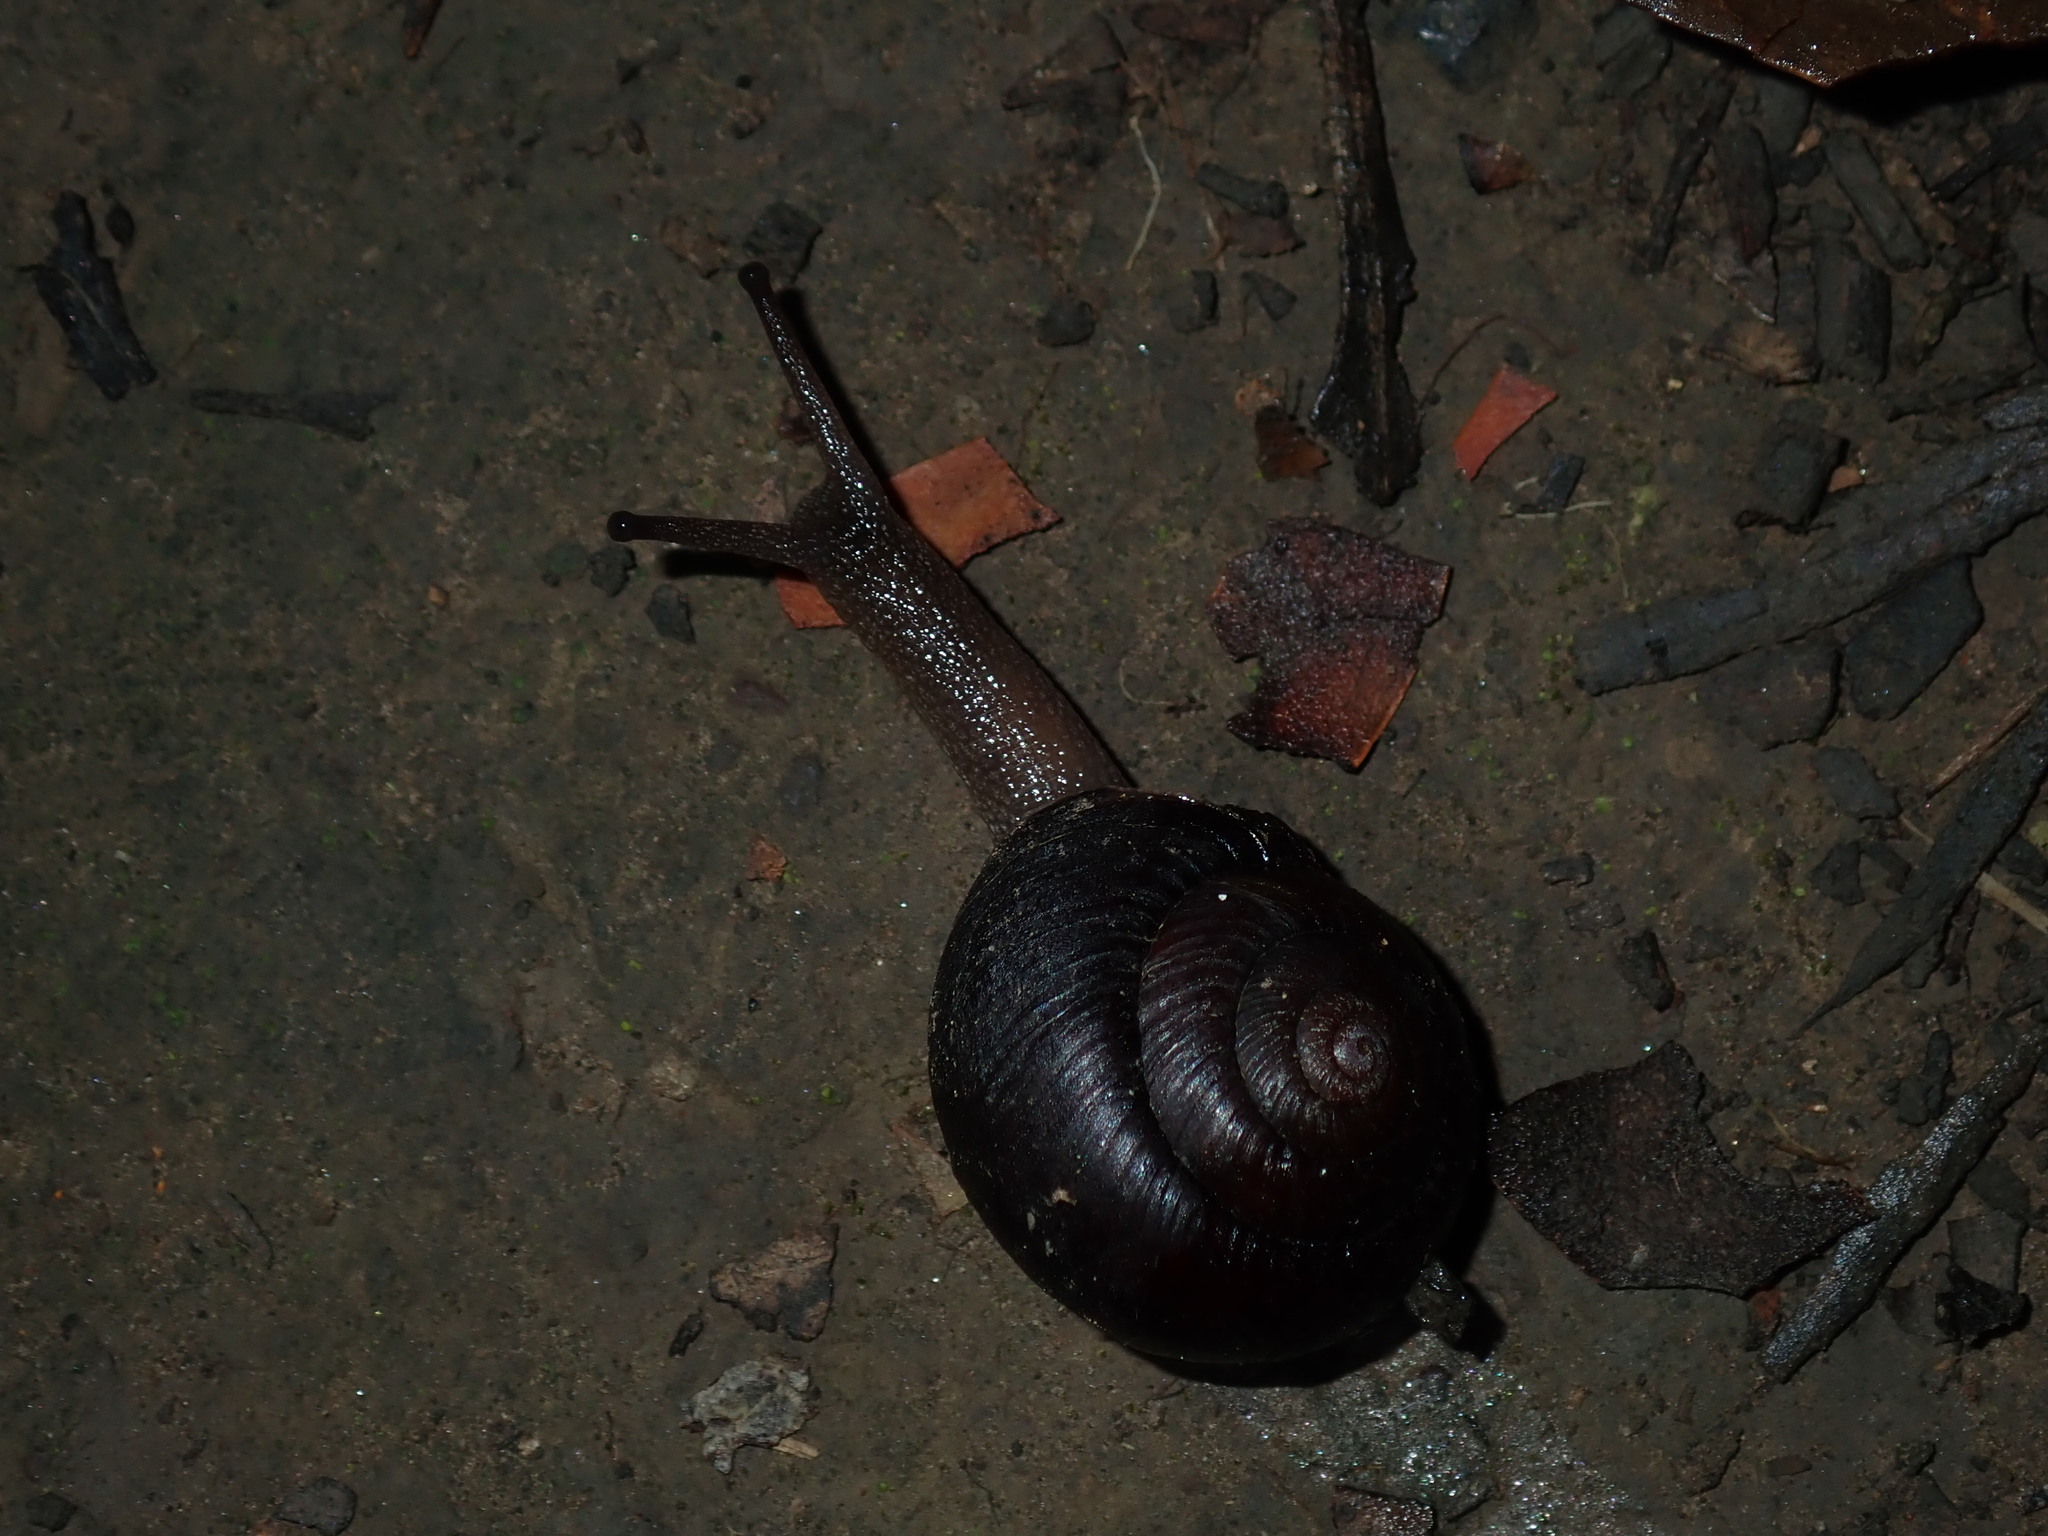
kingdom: Animalia
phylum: Mollusca
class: Gastropoda
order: Stylommatophora
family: Camaenidae
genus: Sauroconcha
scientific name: Sauroconcha sheai
